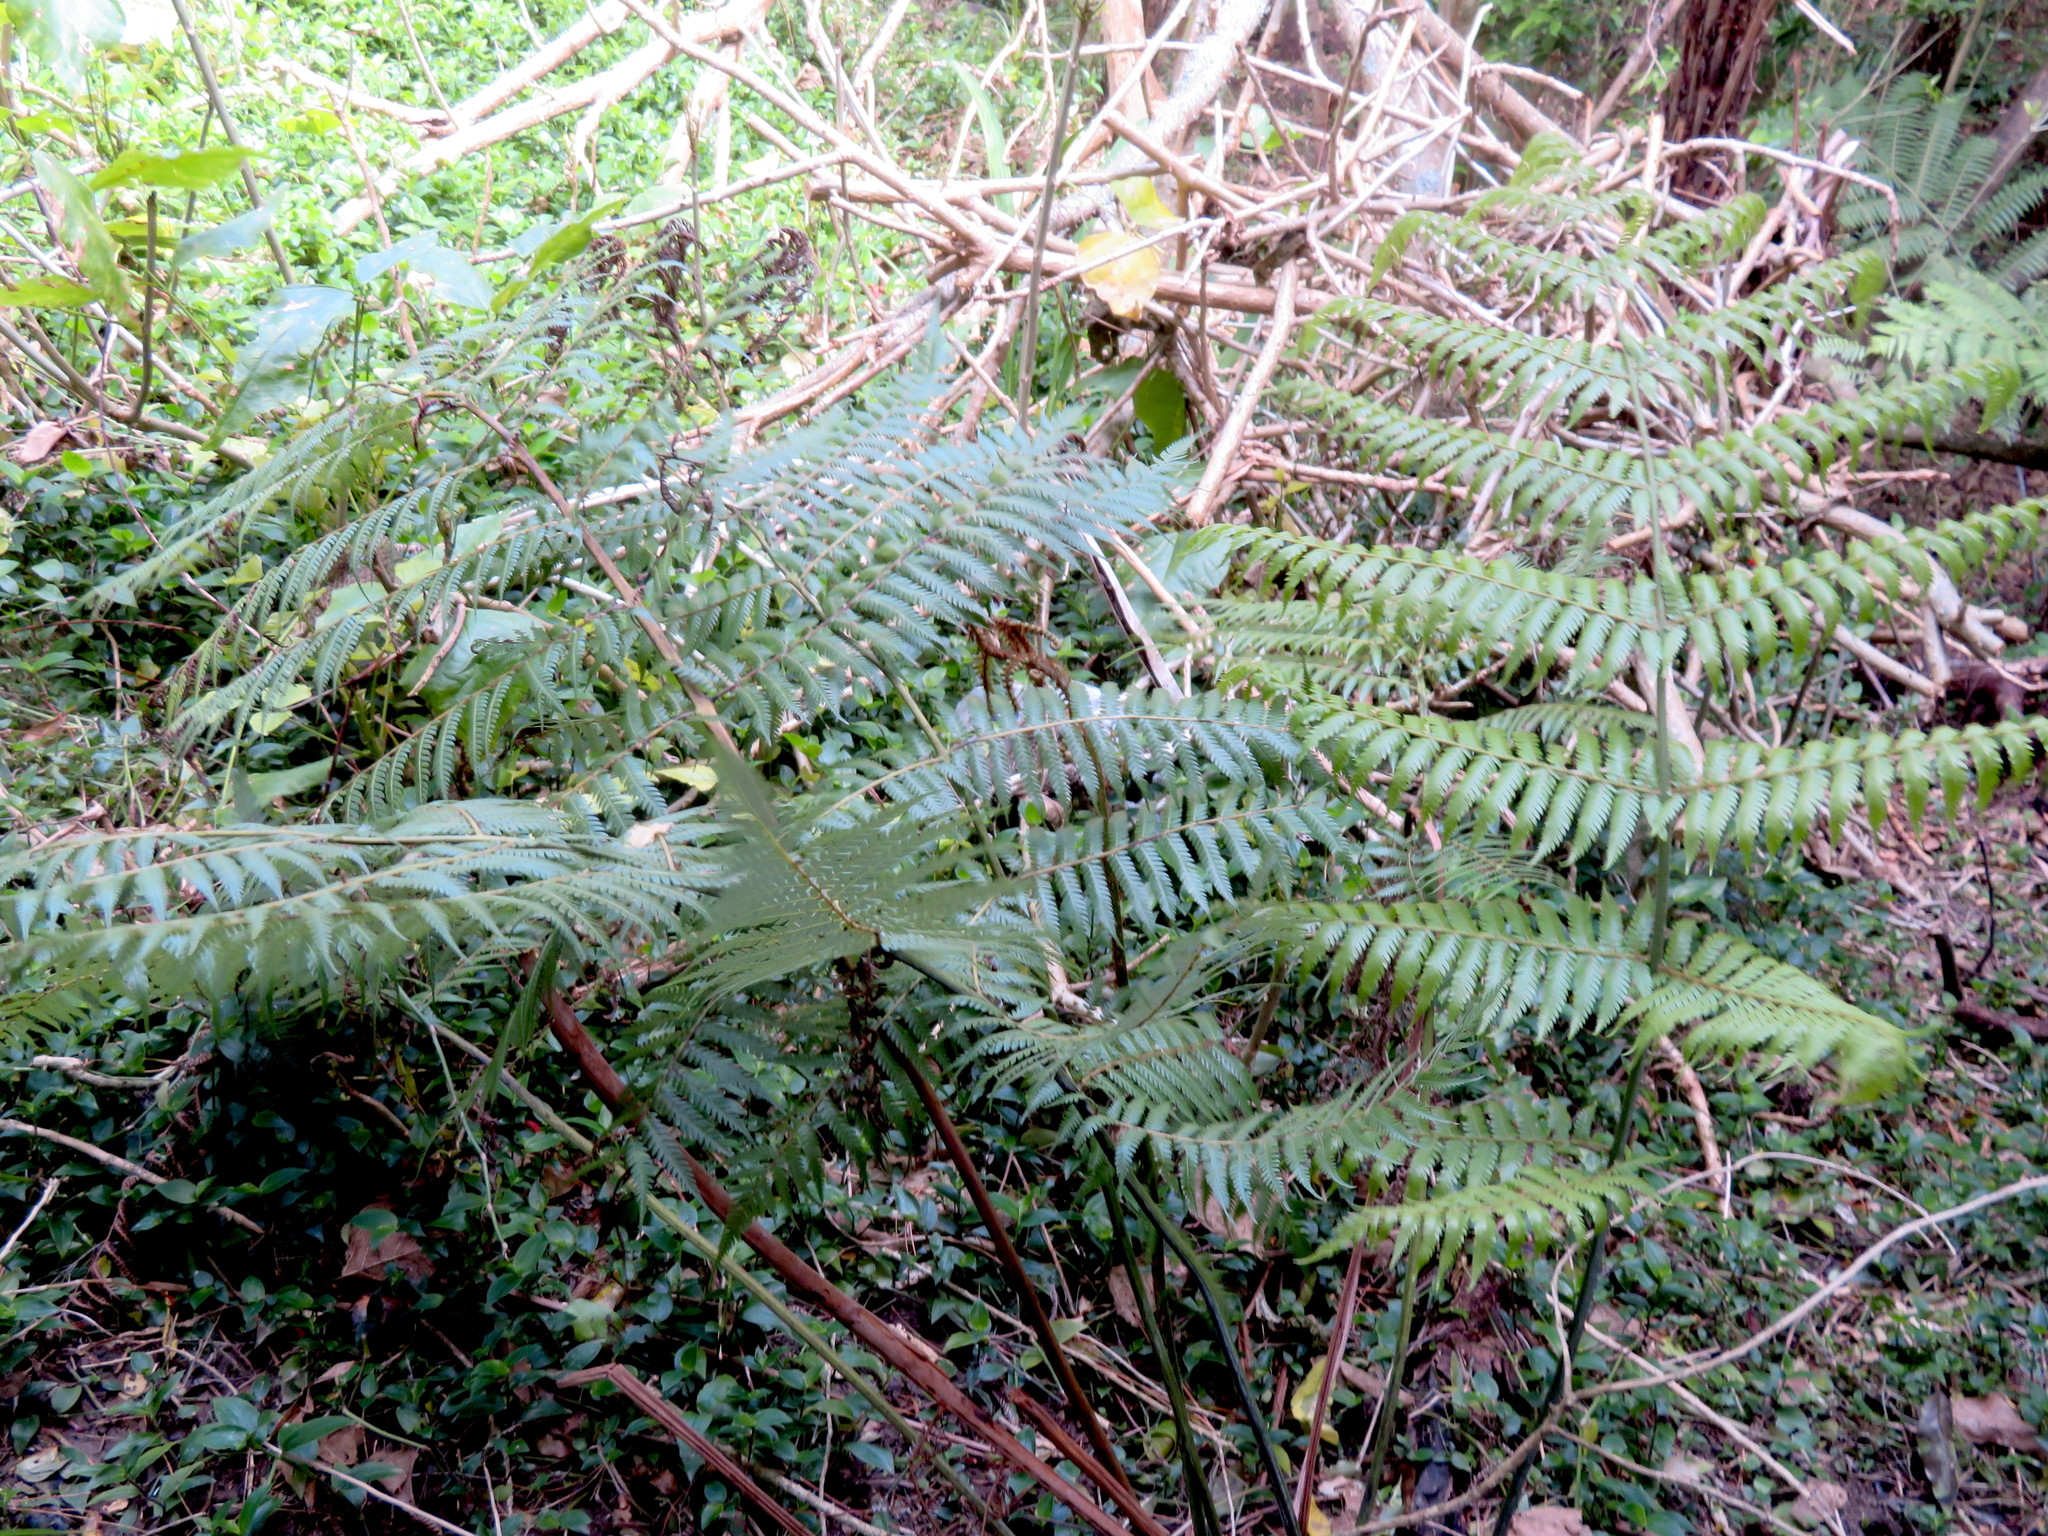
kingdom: Plantae
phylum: Tracheophyta
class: Polypodiopsida
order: Cyatheales
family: Cyatheaceae
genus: Alsophila
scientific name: Alsophila dealbata
